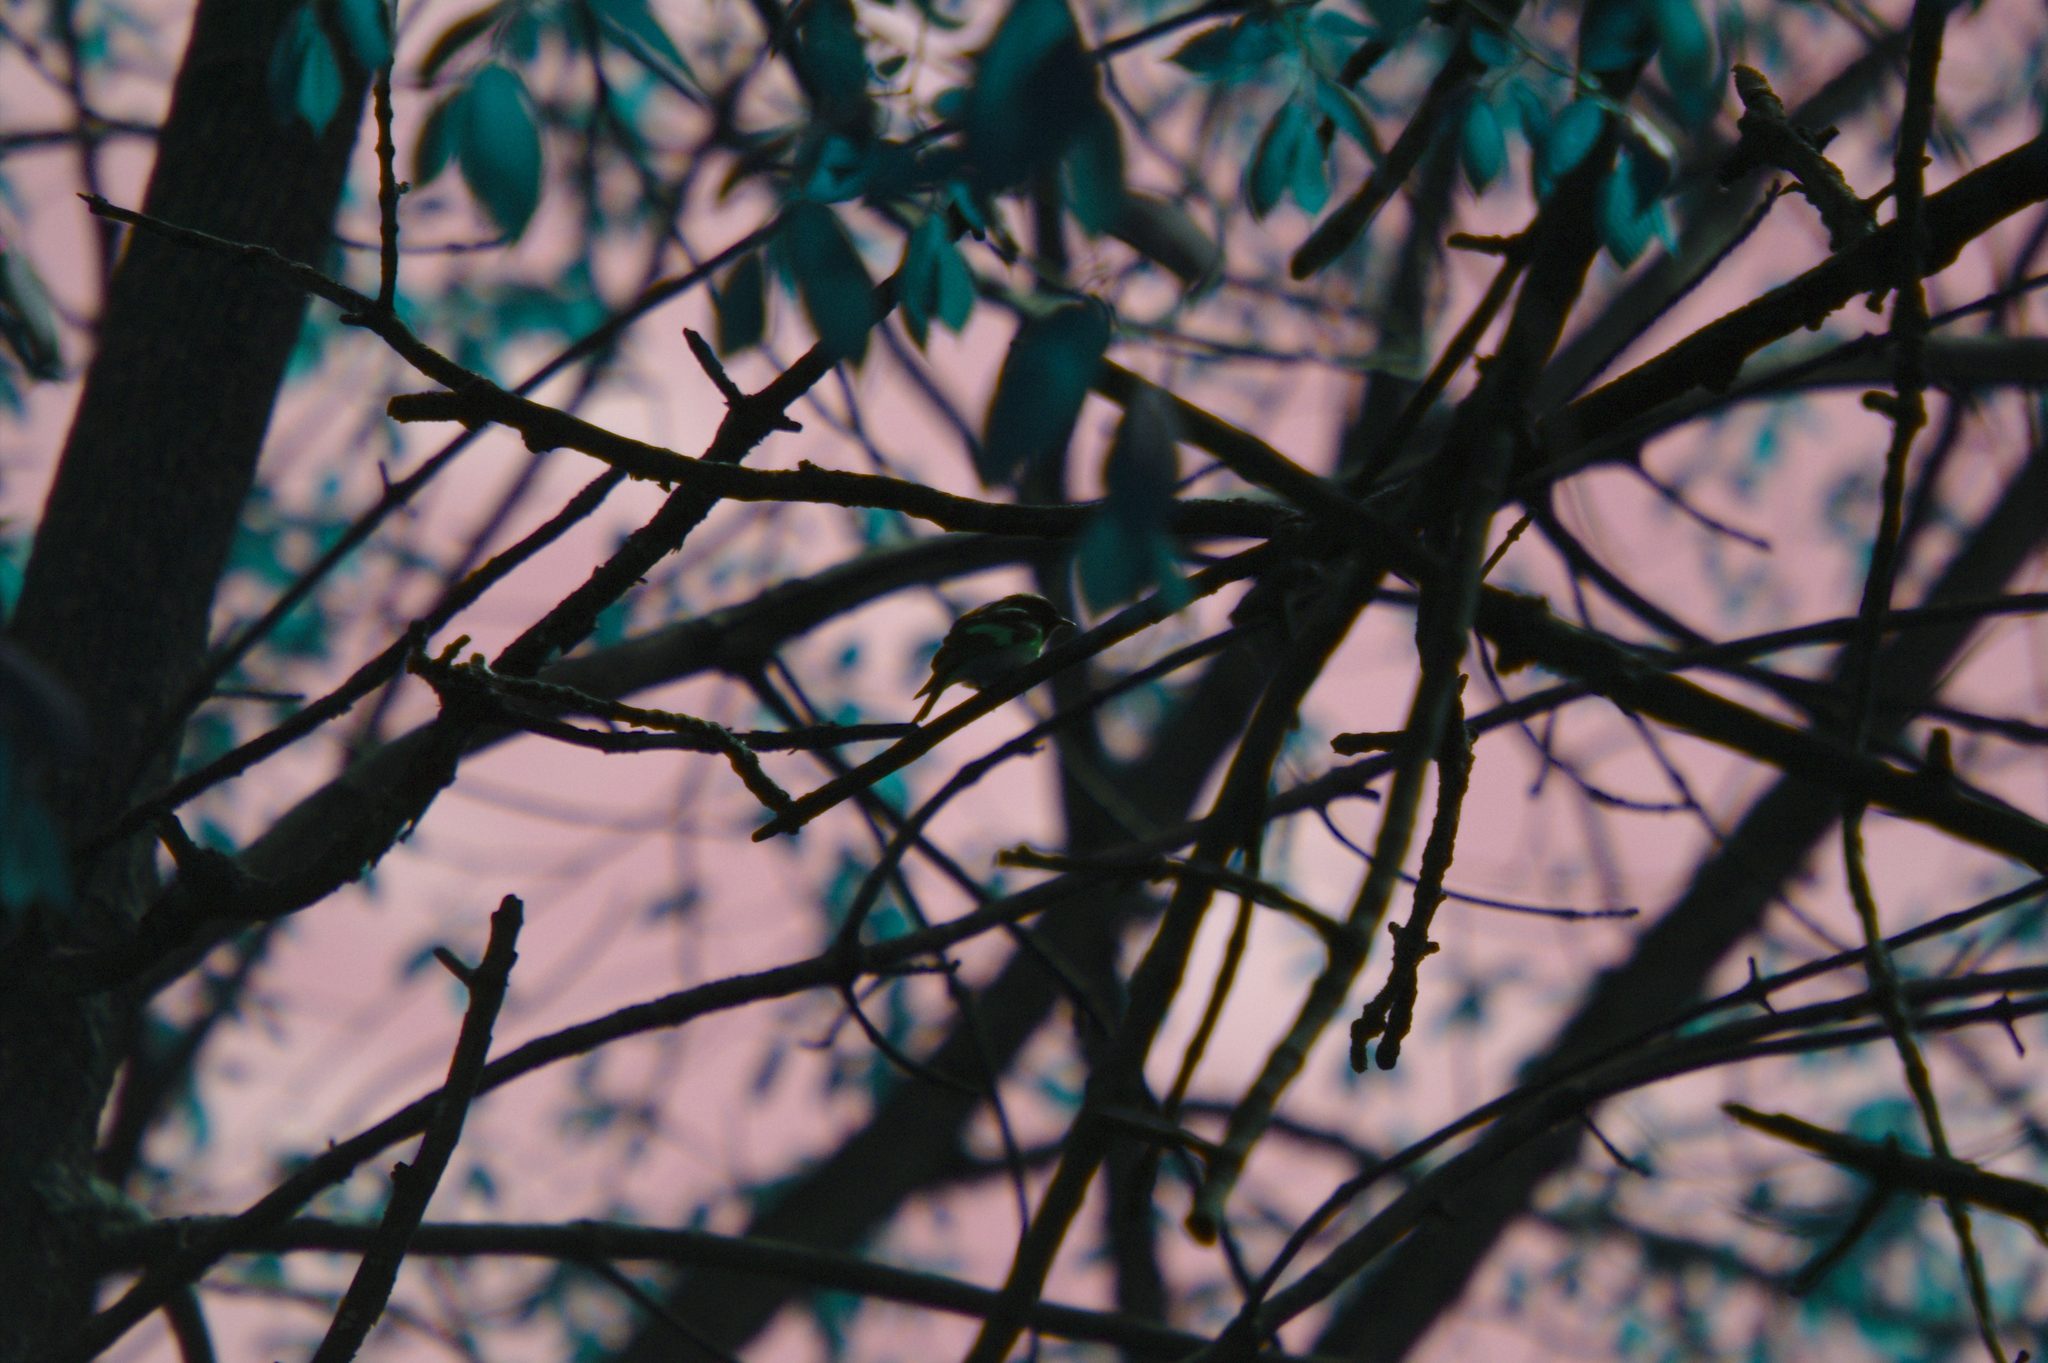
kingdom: Animalia
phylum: Chordata
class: Aves
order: Passeriformes
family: Parulidae
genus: Setophaga
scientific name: Setophaga ruticilla
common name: American redstart
